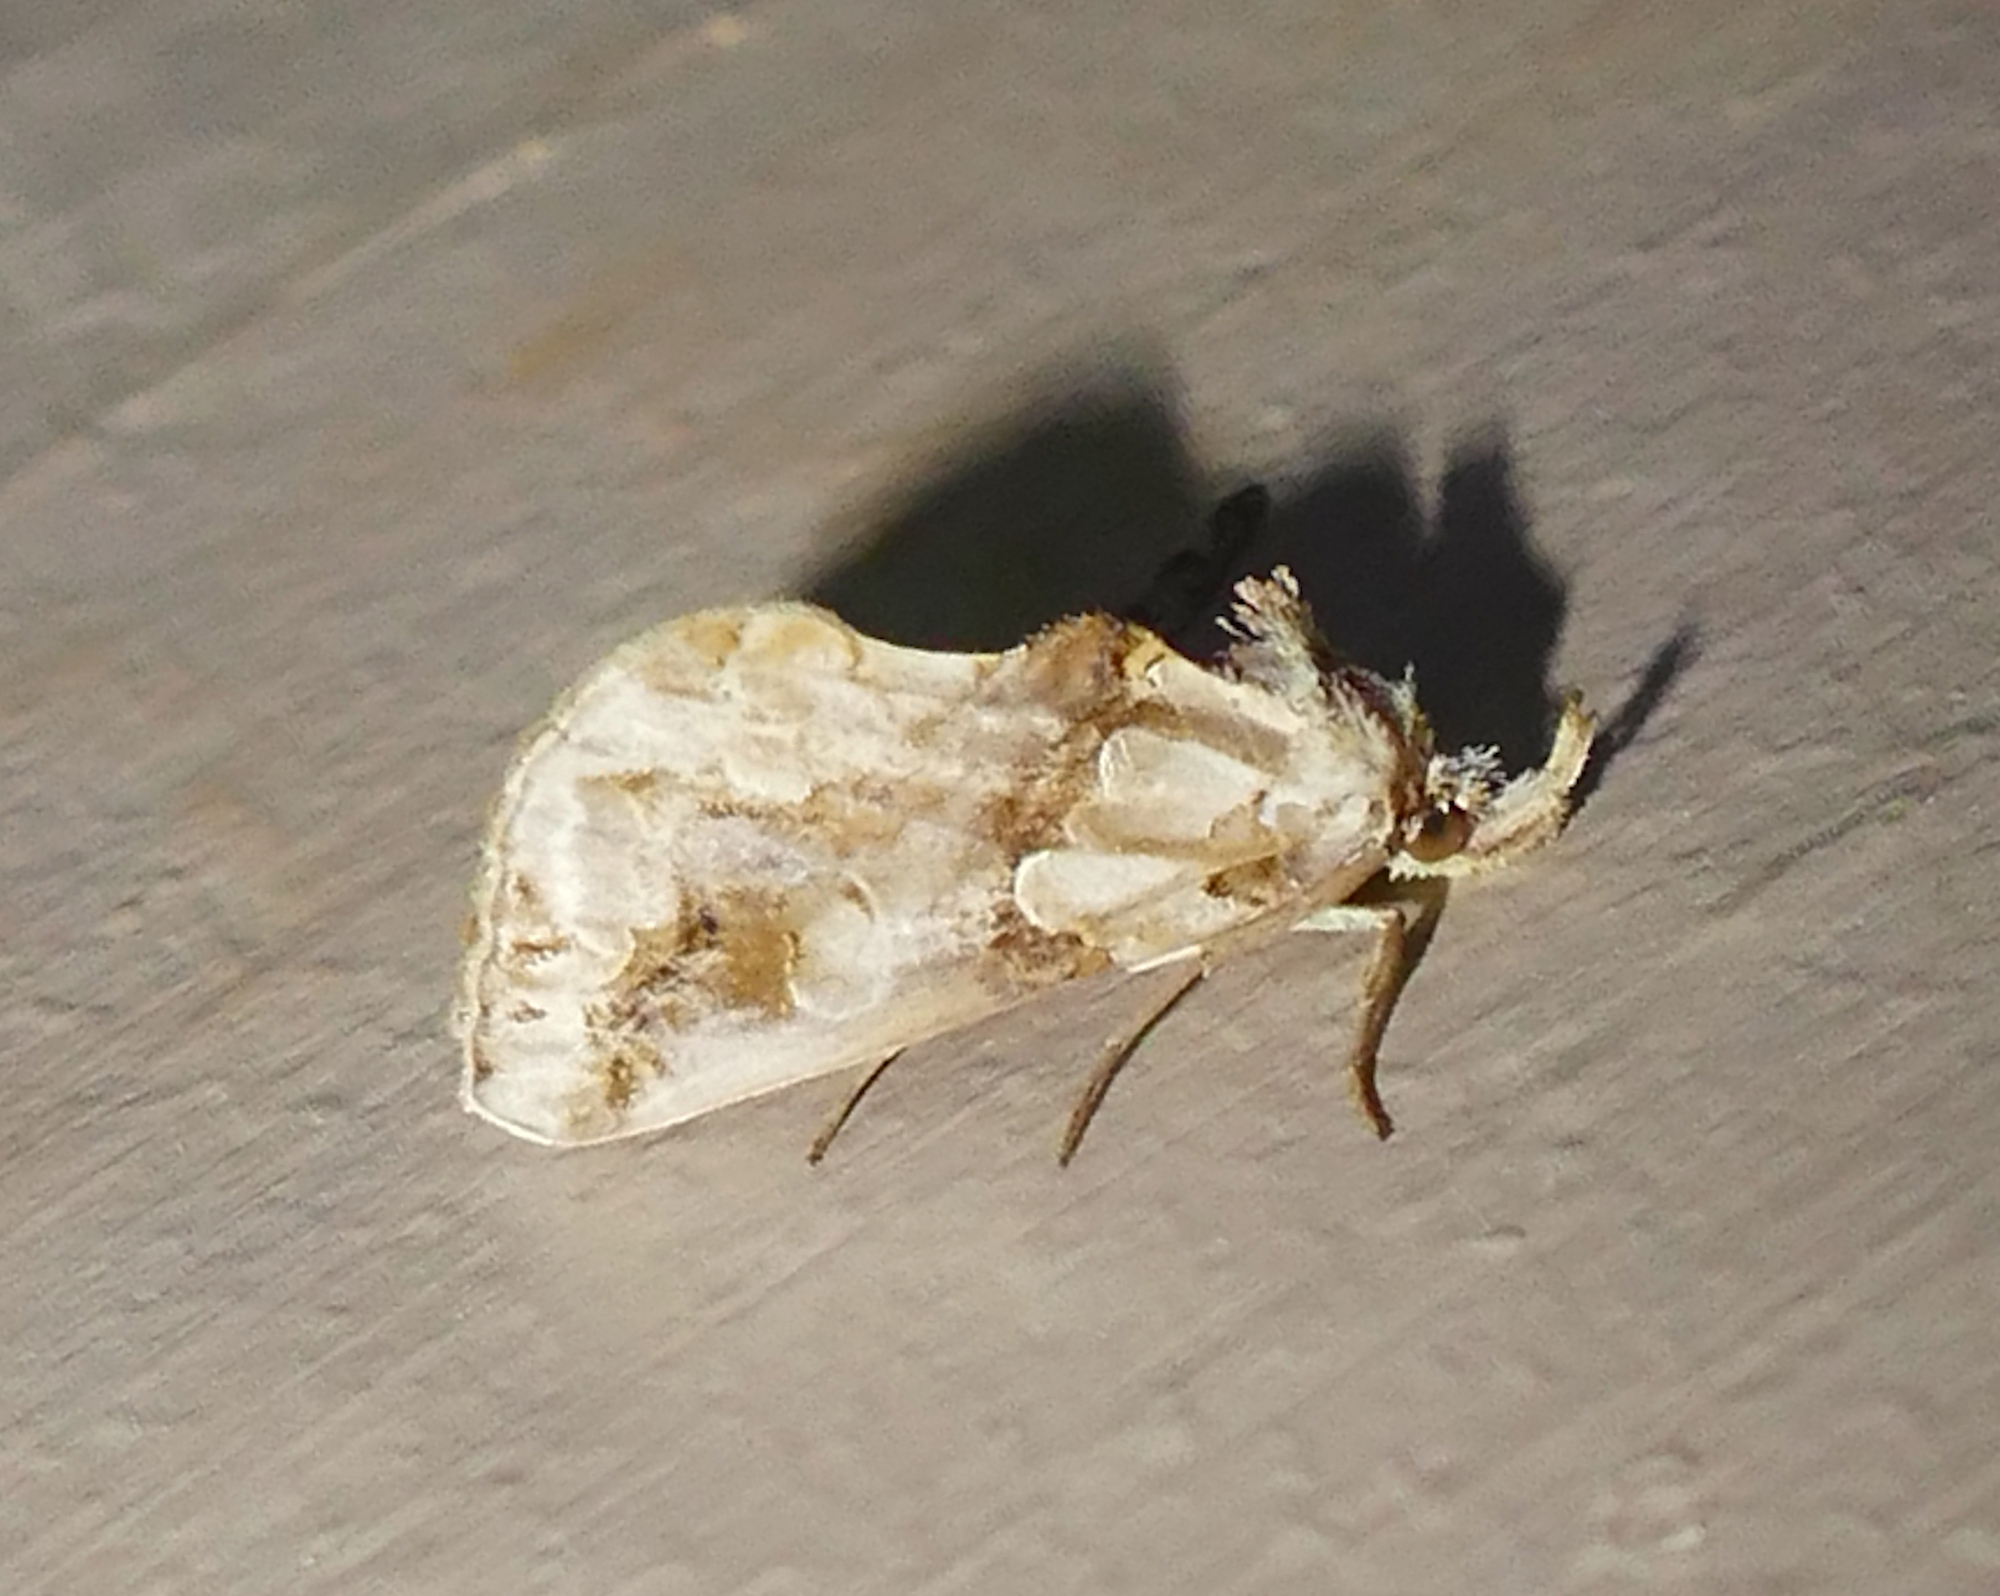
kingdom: Animalia
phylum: Arthropoda
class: Insecta
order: Lepidoptera
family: Erebidae
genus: Plusiodonta
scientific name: Plusiodonta compressipalpis
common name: Moonseed moth
